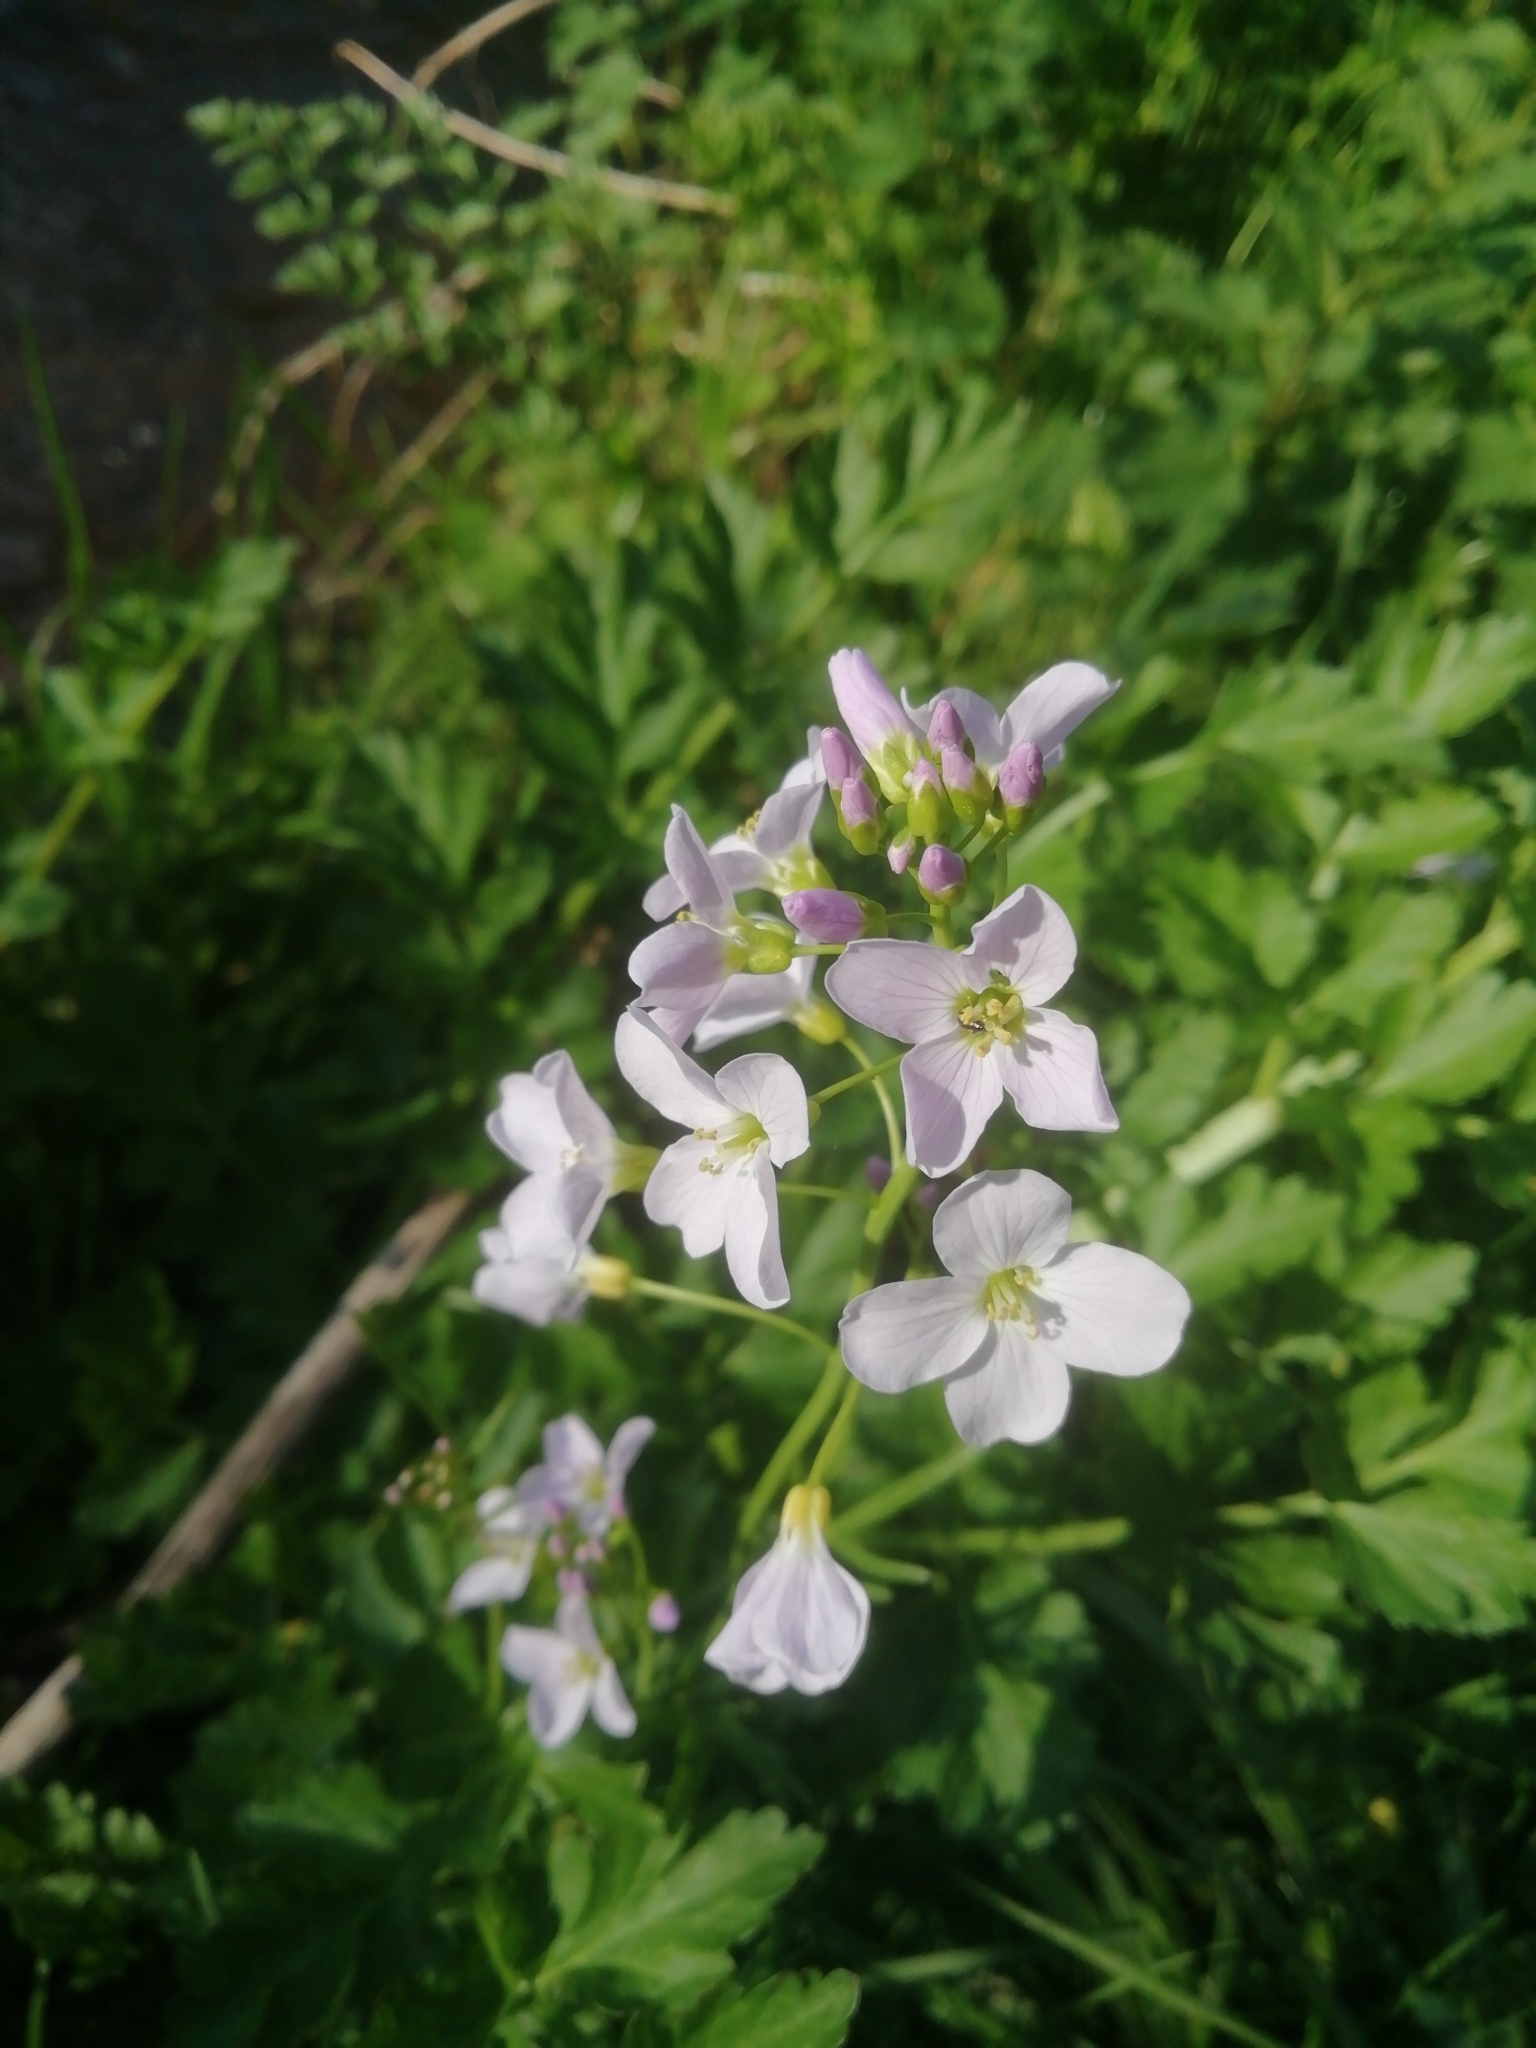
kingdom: Plantae
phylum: Tracheophyta
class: Magnoliopsida
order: Brassicales
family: Brassicaceae
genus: Cardamine
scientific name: Cardamine pratensis
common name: Cuckoo flower
